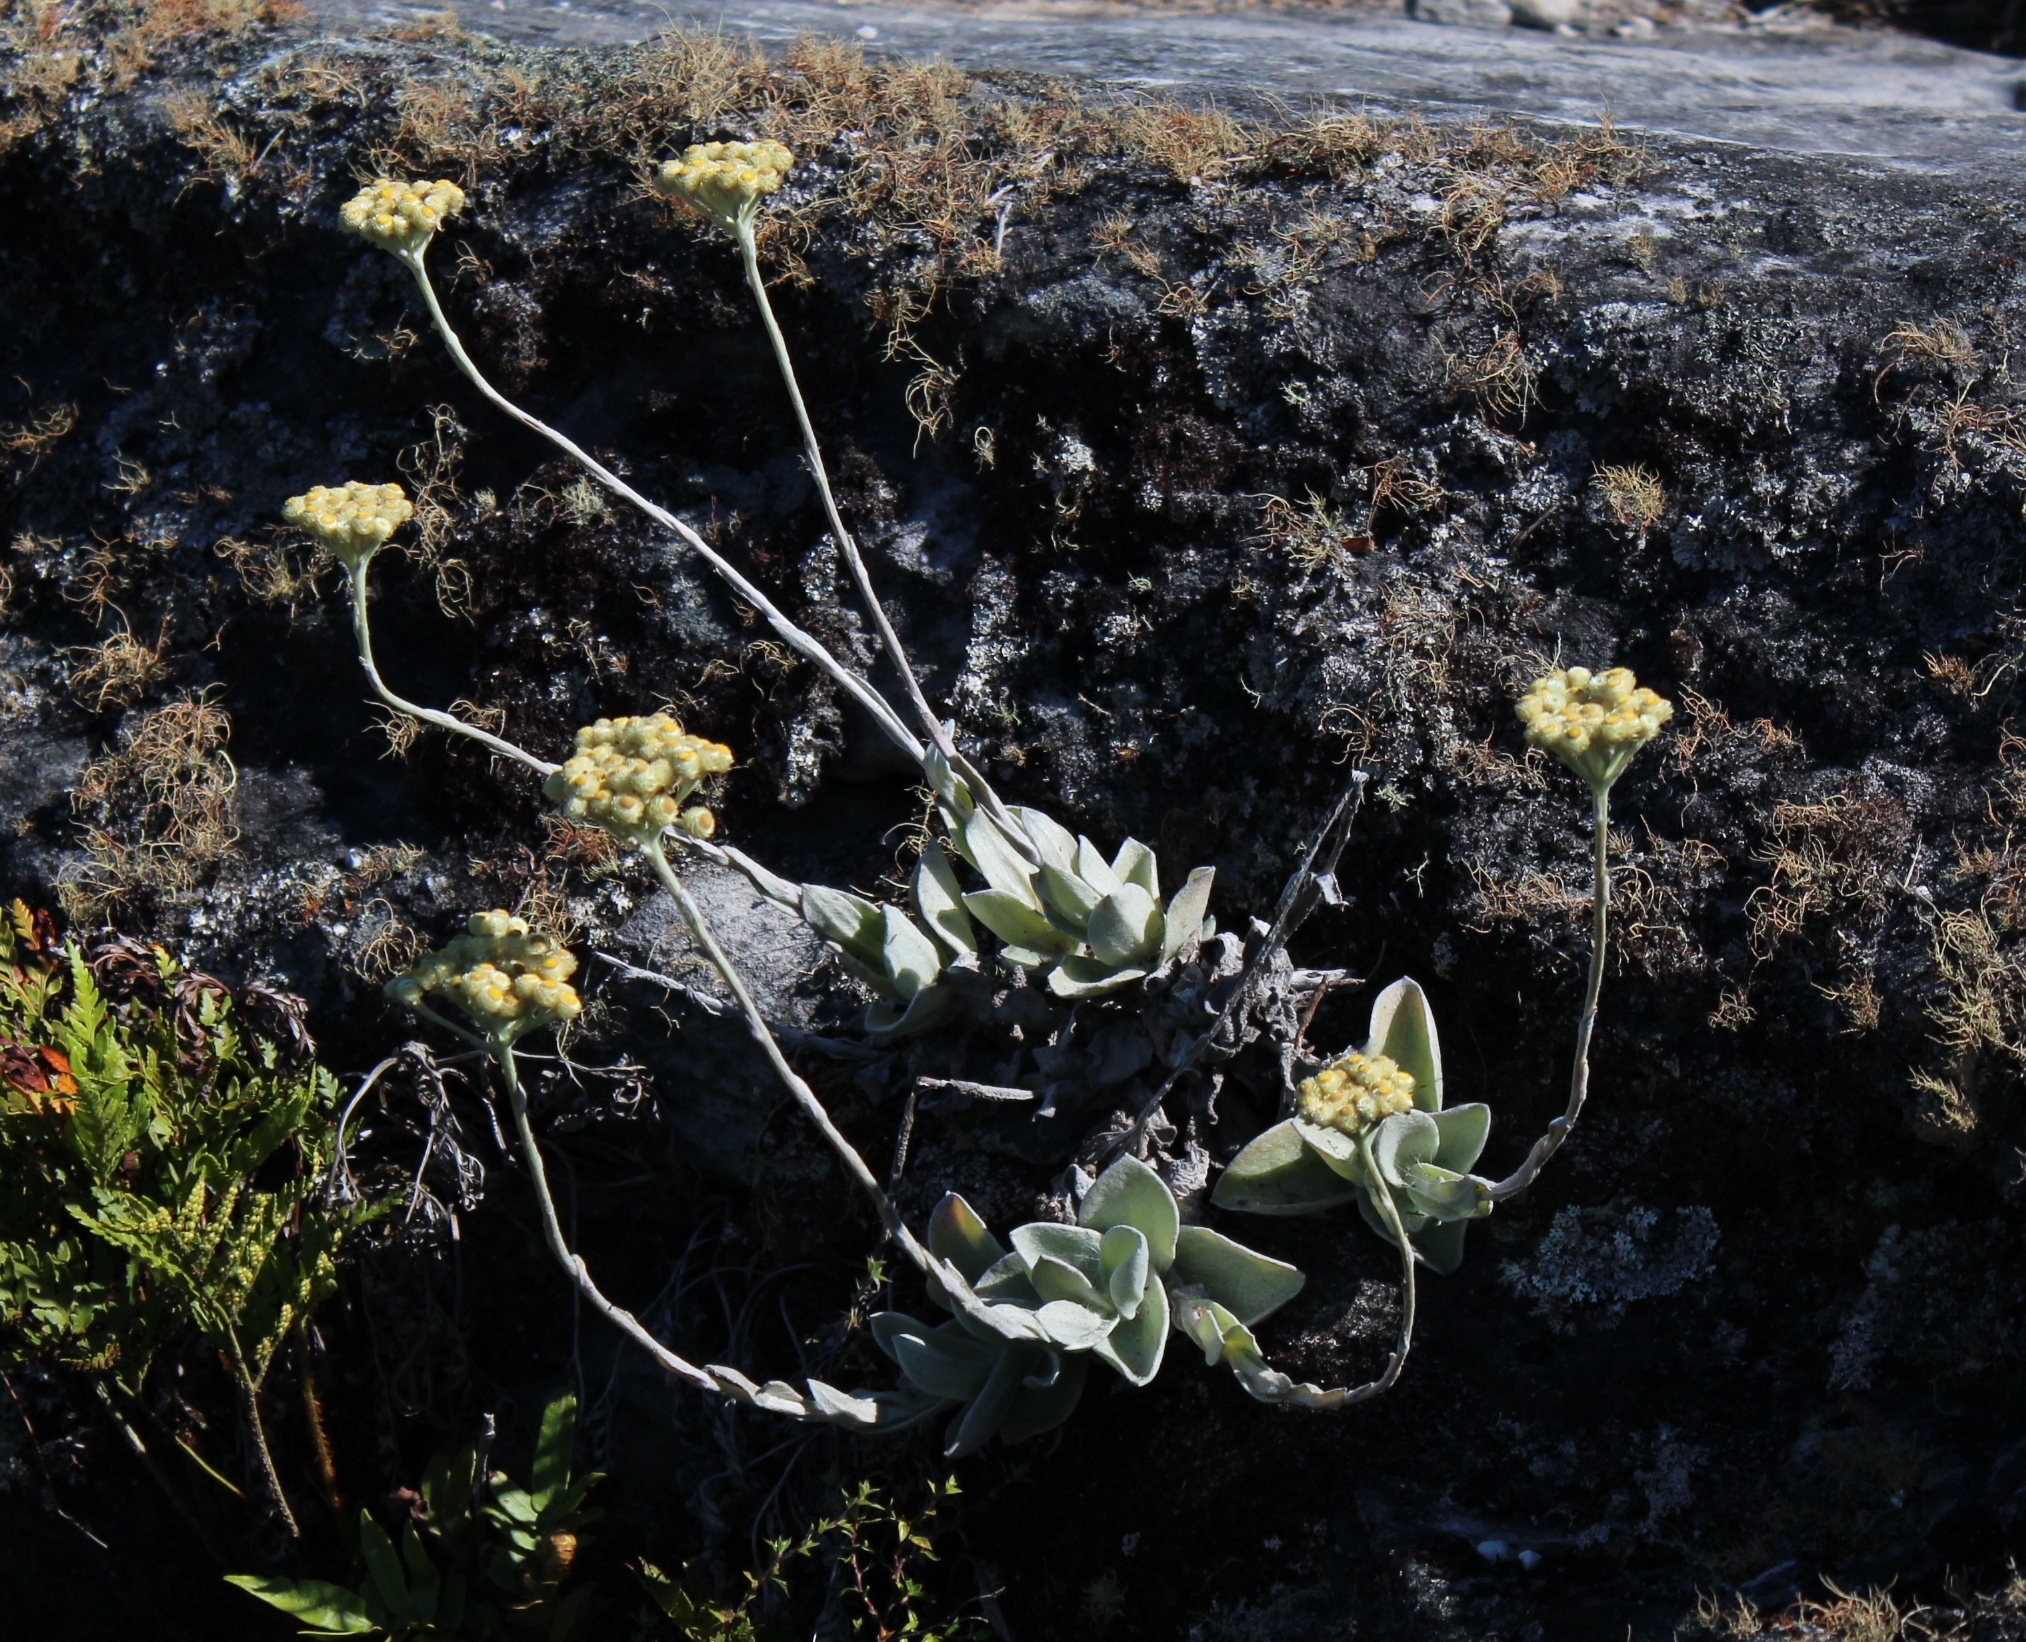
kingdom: Plantae
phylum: Tracheophyta
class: Magnoliopsida
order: Asterales
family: Asteraceae
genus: Helichrysum
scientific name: Helichrysum grandiflorum
